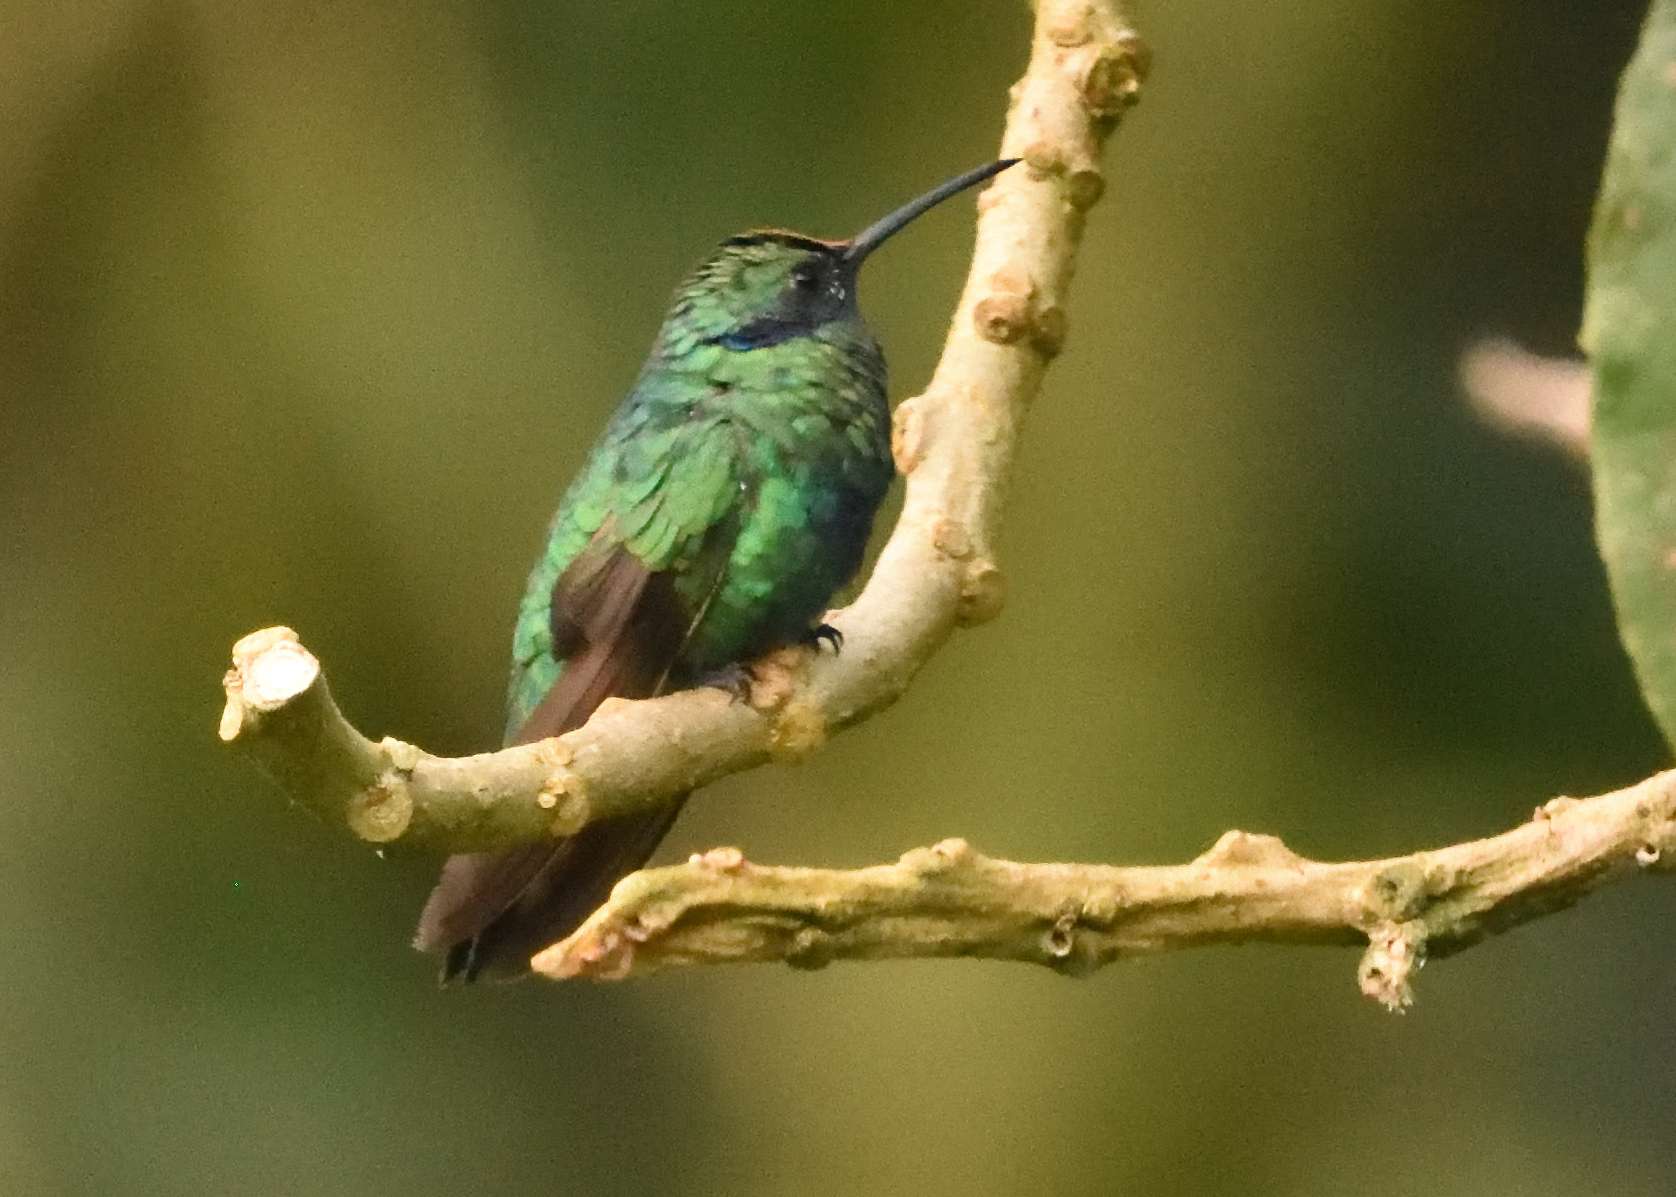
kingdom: Animalia
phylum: Chordata
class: Aves
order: Apodiformes
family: Trochilidae
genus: Colibri
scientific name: Colibri coruscans
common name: Sparkling violetear
